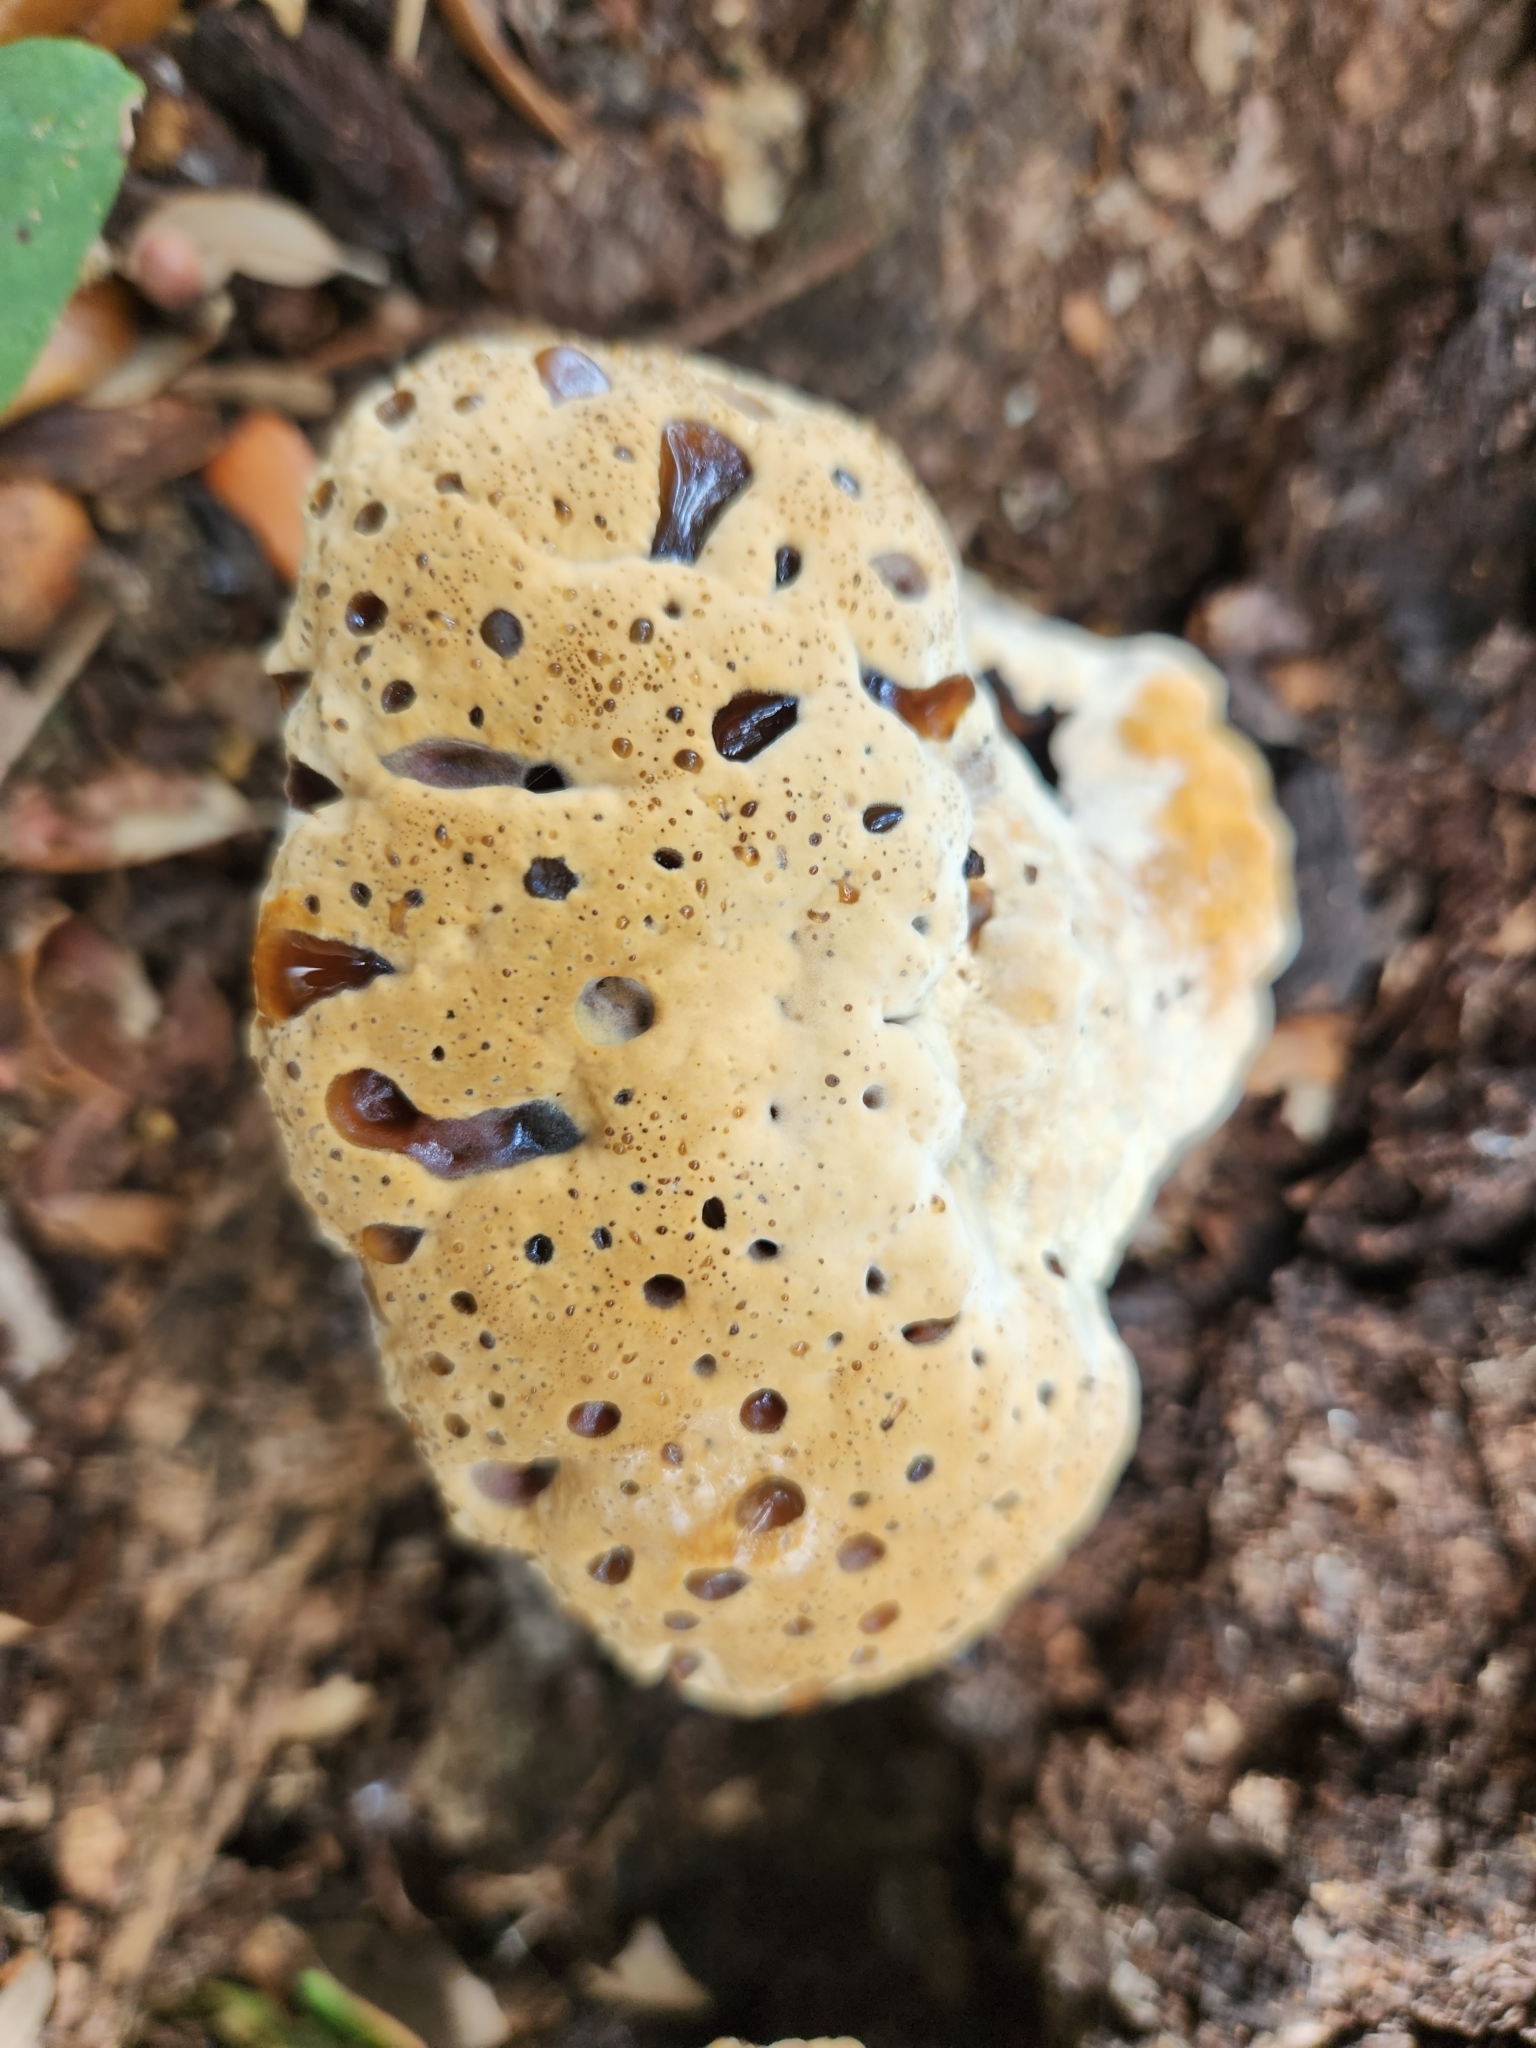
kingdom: Fungi
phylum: Basidiomycota
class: Agaricomycetes
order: Hymenochaetales
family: Hymenochaetaceae
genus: Pseudoinonotus
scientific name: Pseudoinonotus dryadeus
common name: Oak bracket
